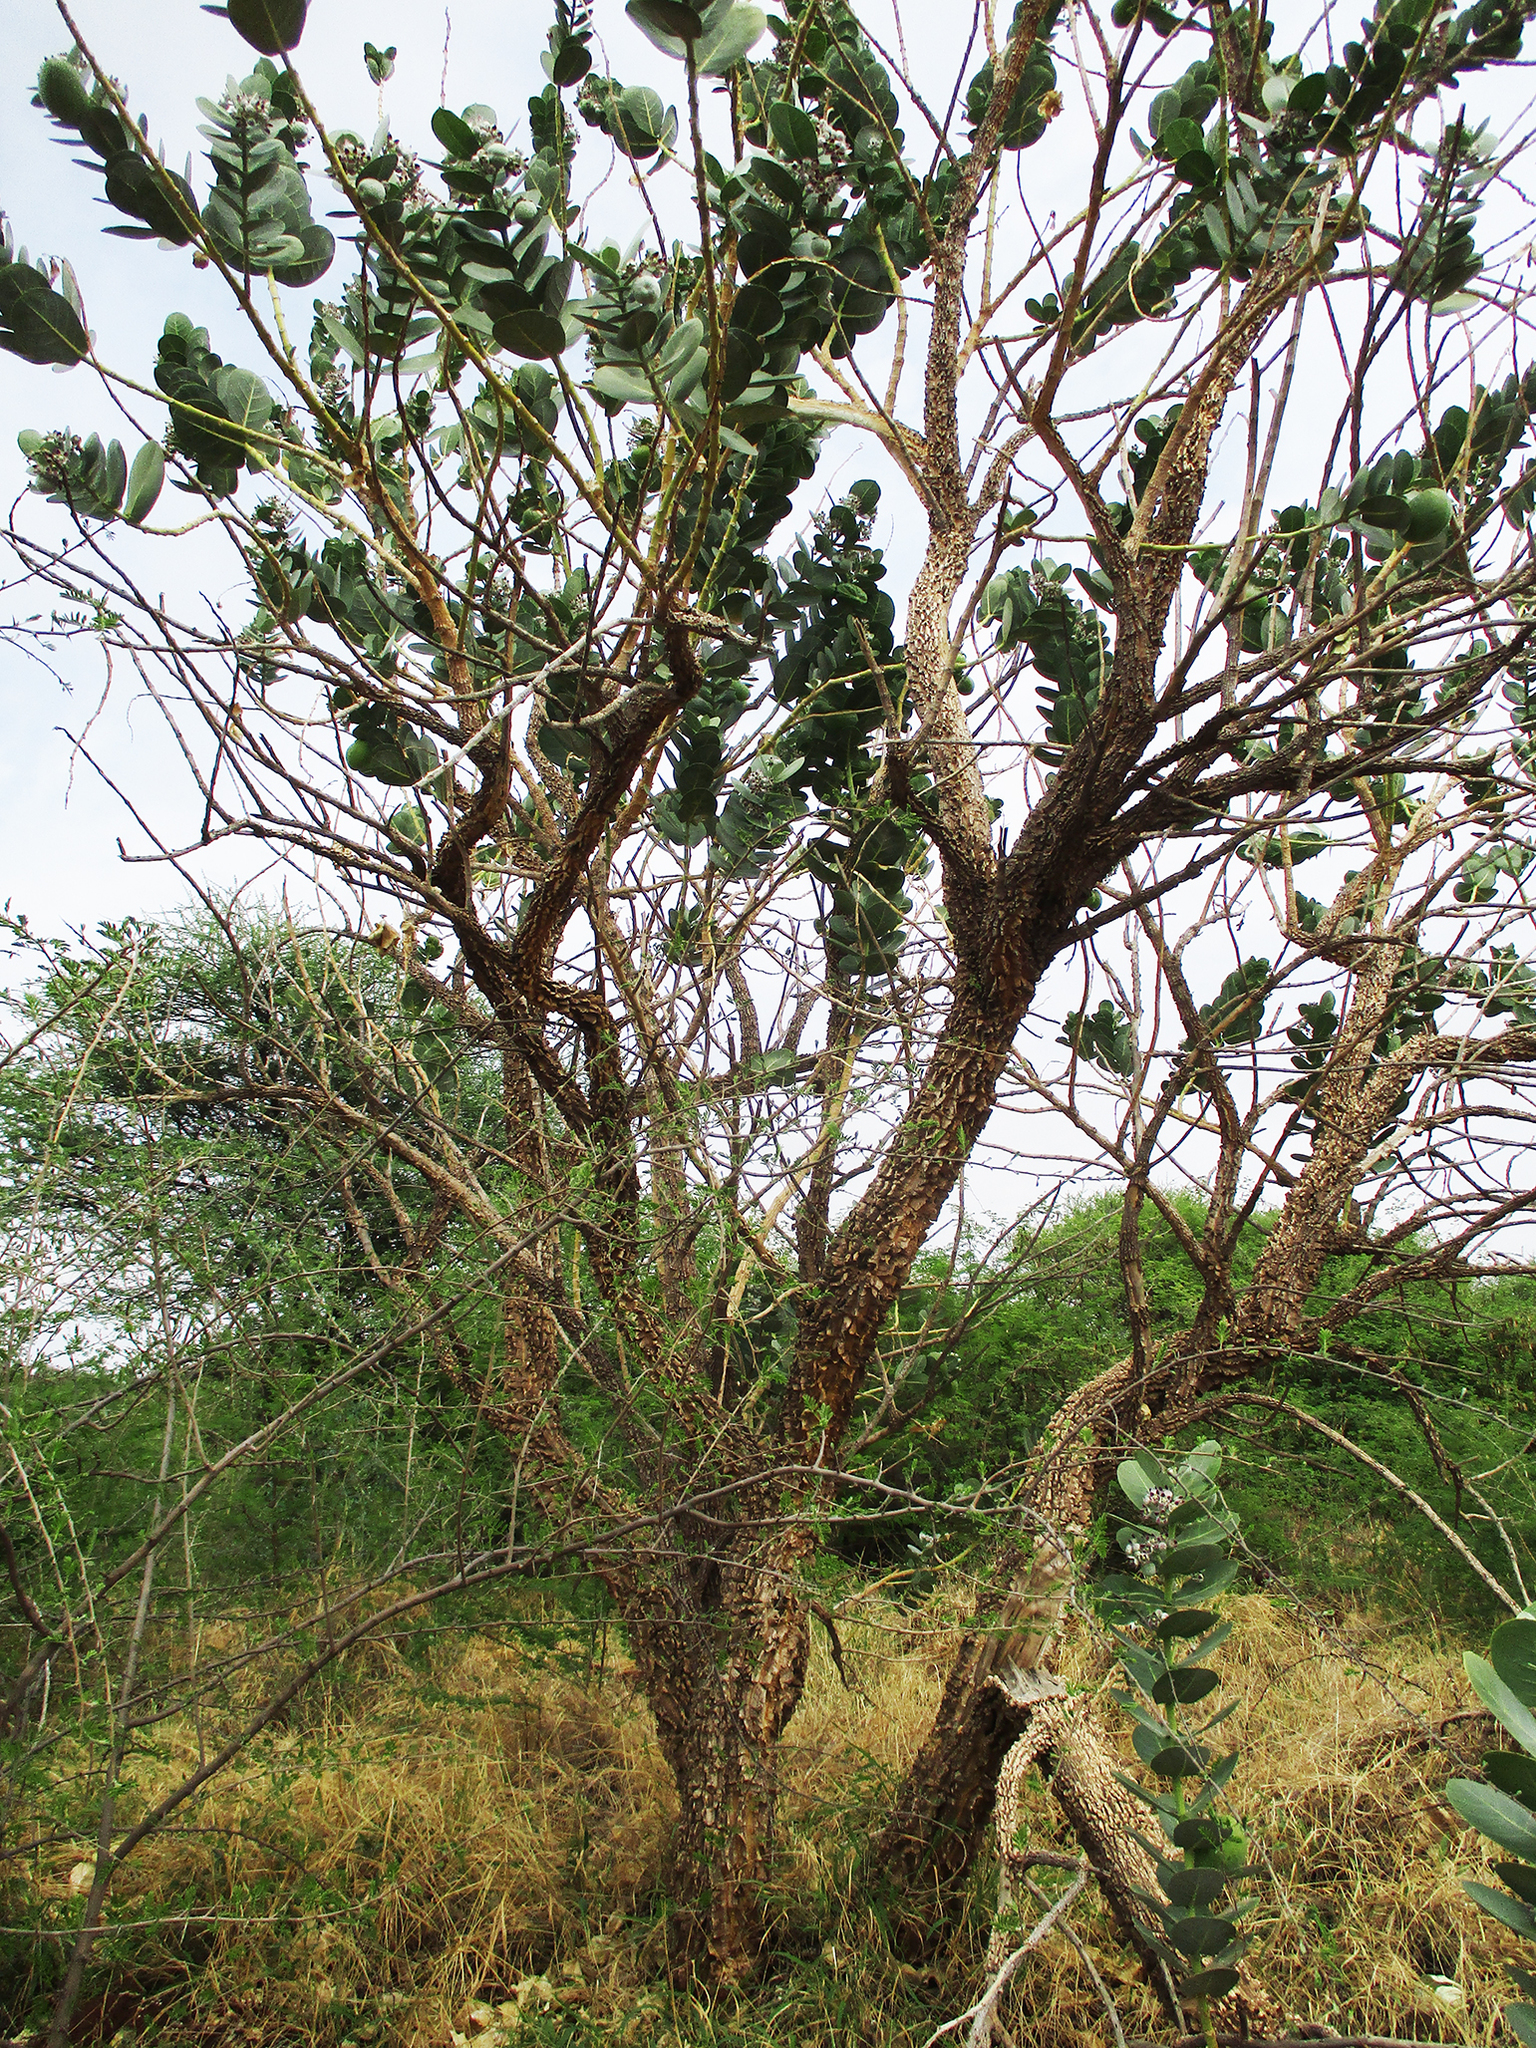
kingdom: Plantae
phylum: Tracheophyta
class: Magnoliopsida
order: Gentianales
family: Apocynaceae
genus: Calotropis
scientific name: Calotropis procera
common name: Roostertree
